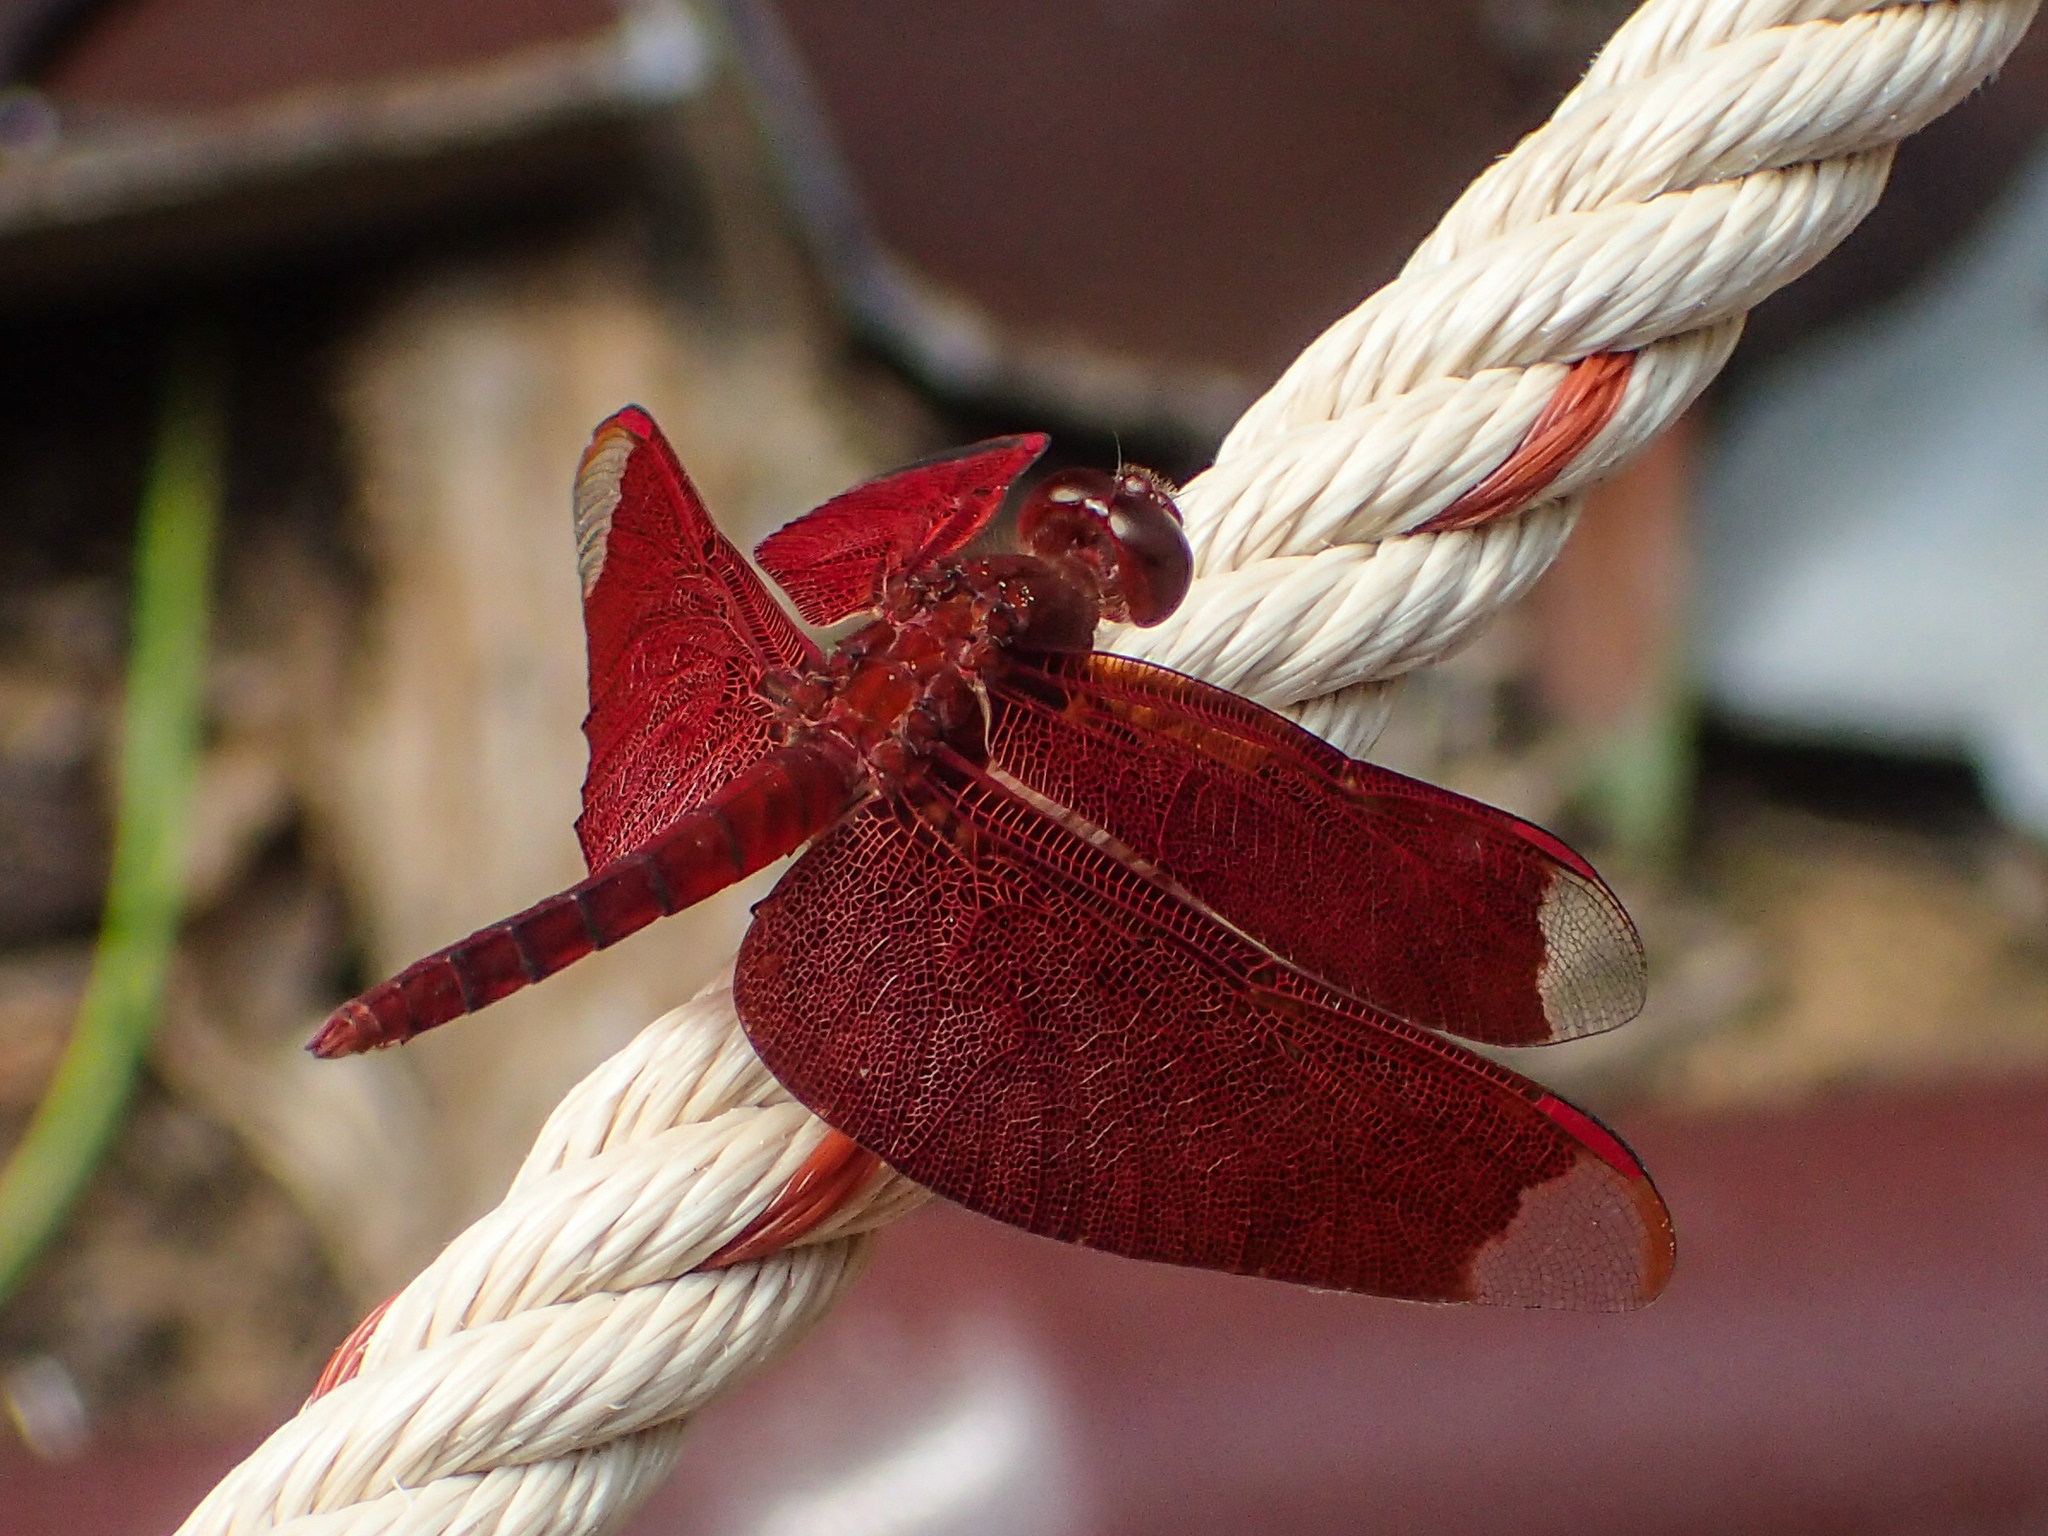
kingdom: Animalia
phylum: Arthropoda
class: Insecta
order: Odonata
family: Libellulidae
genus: Neurothemis
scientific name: Neurothemis fulvia
